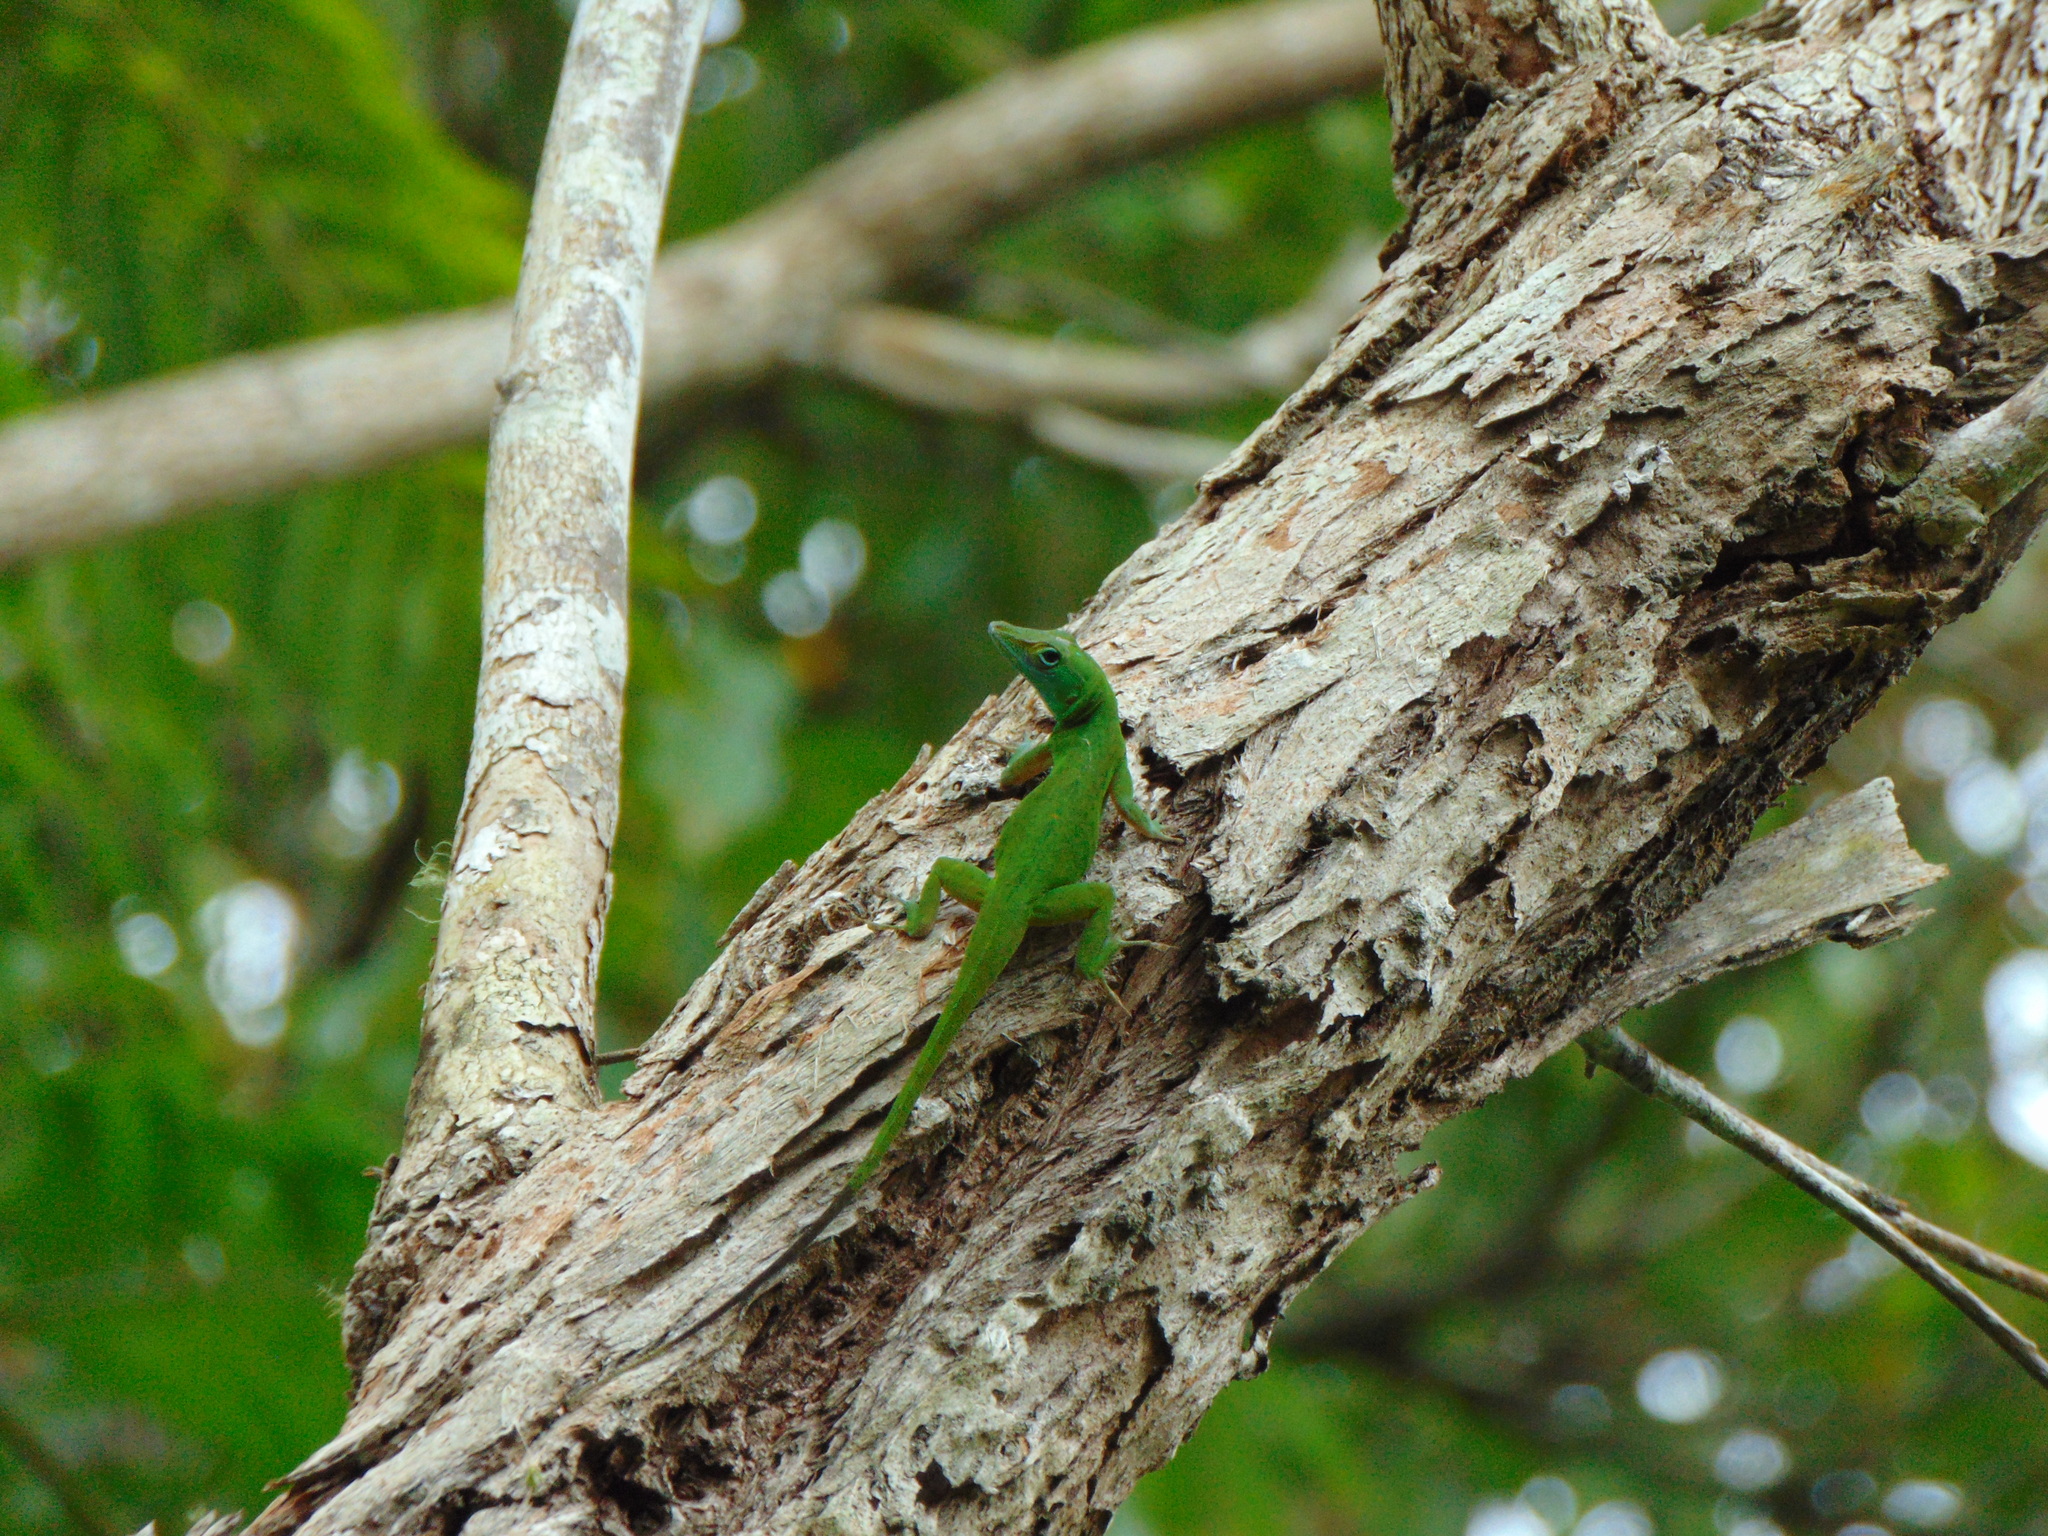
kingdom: Animalia
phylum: Chordata
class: Squamata
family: Dactyloidae
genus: Anolis
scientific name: Anolis evermanni
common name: Emerald anole
